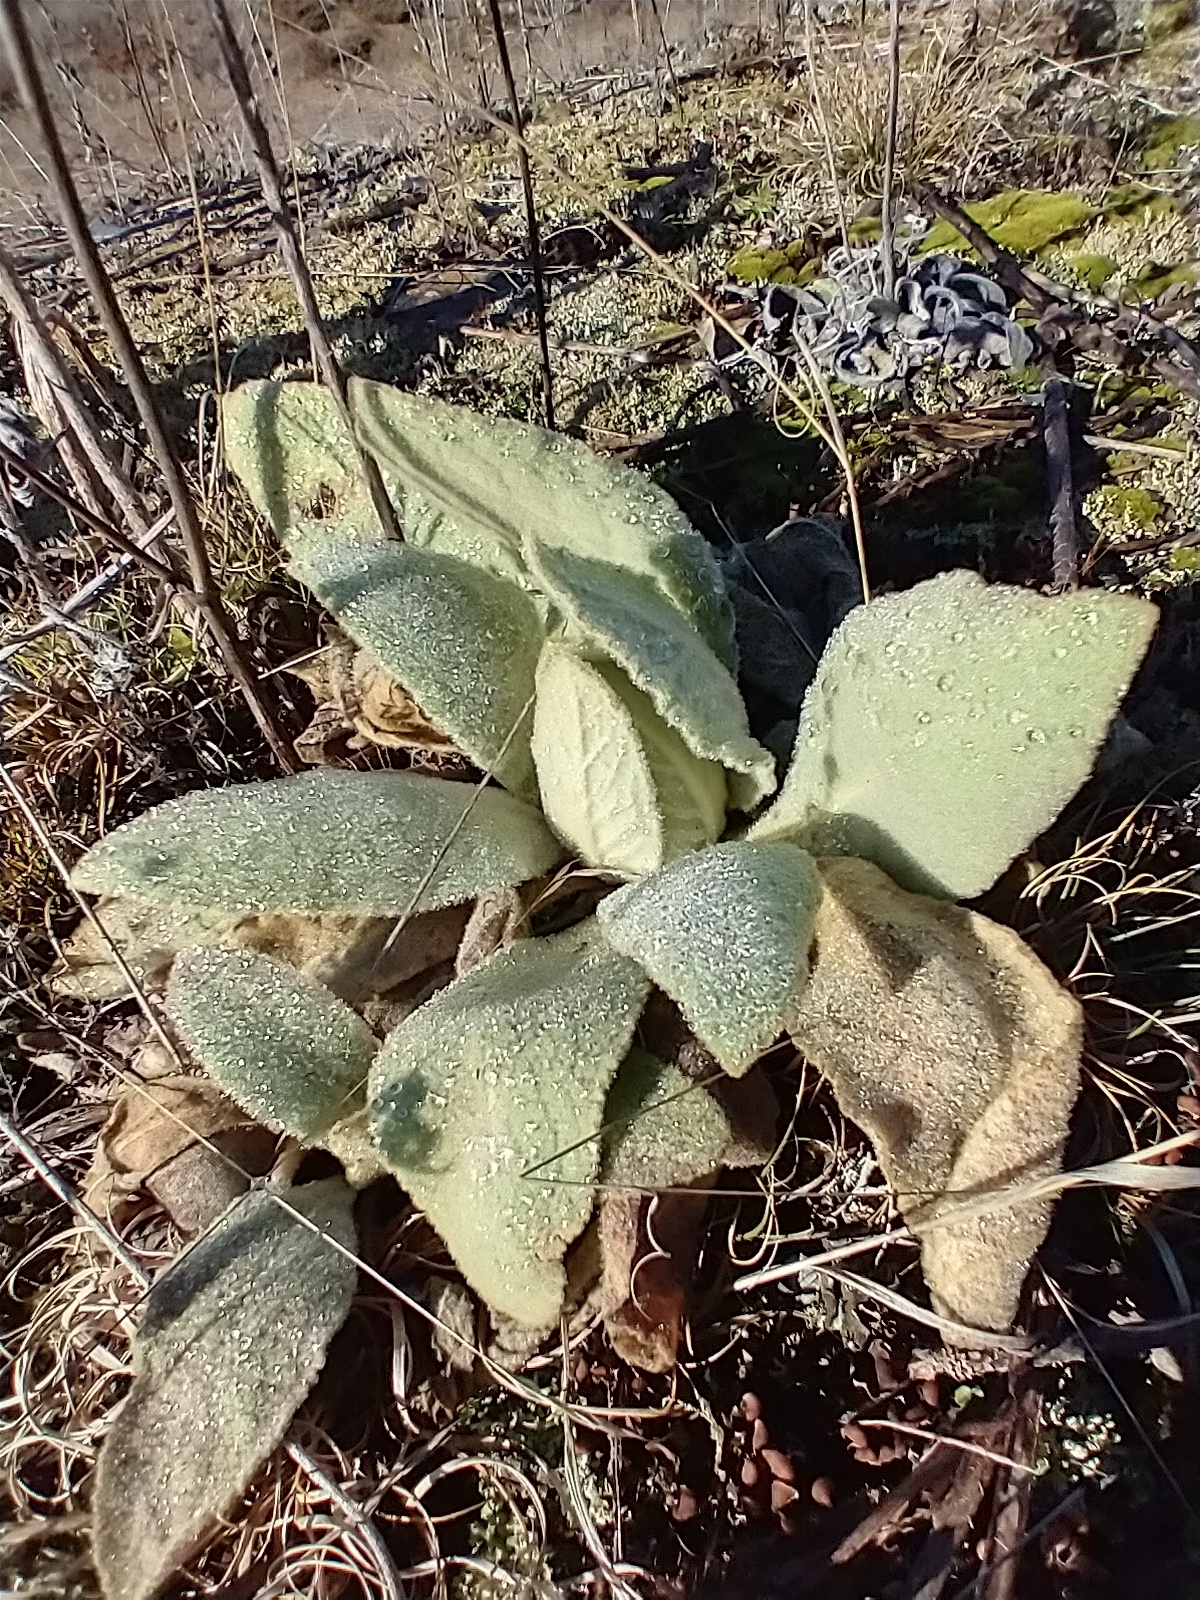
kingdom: Plantae
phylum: Tracheophyta
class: Magnoliopsida
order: Lamiales
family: Scrophulariaceae
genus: Verbascum
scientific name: Verbascum thapsus
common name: Common mullein
